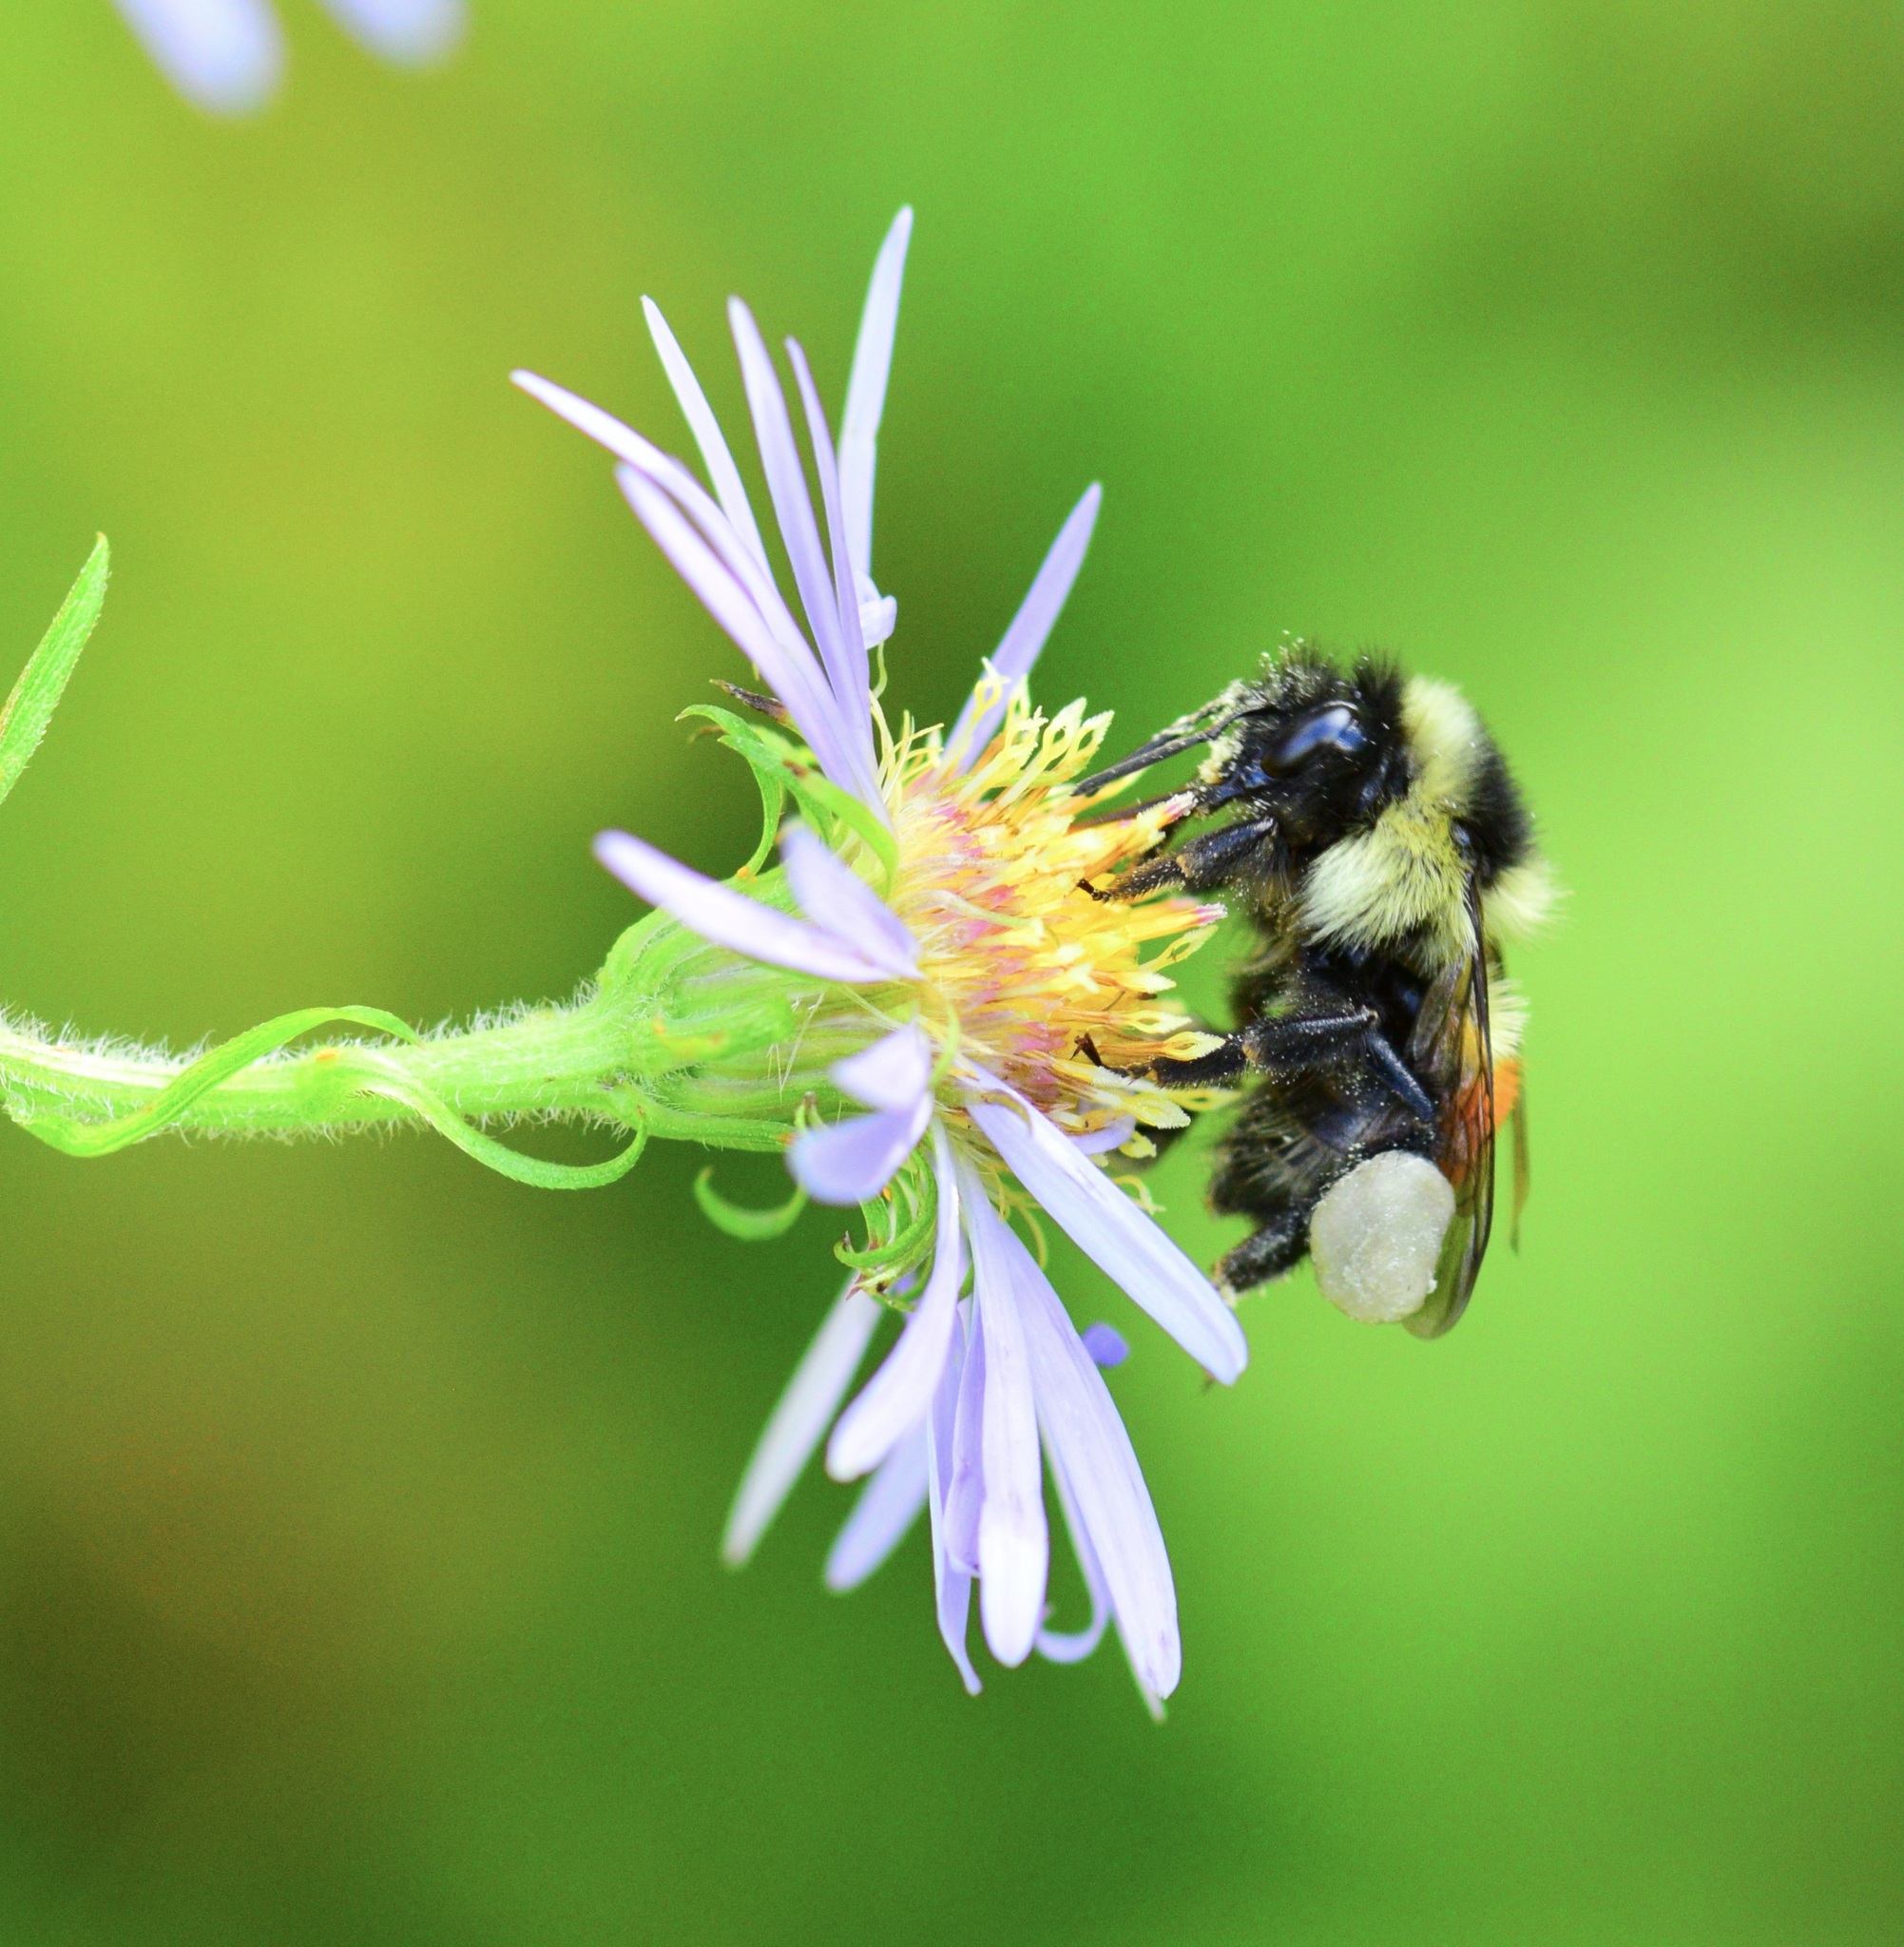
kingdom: Animalia
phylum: Arthropoda
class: Insecta
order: Hymenoptera
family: Apidae
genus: Bombus
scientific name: Bombus ternarius
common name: Tri-colored bumble bee
